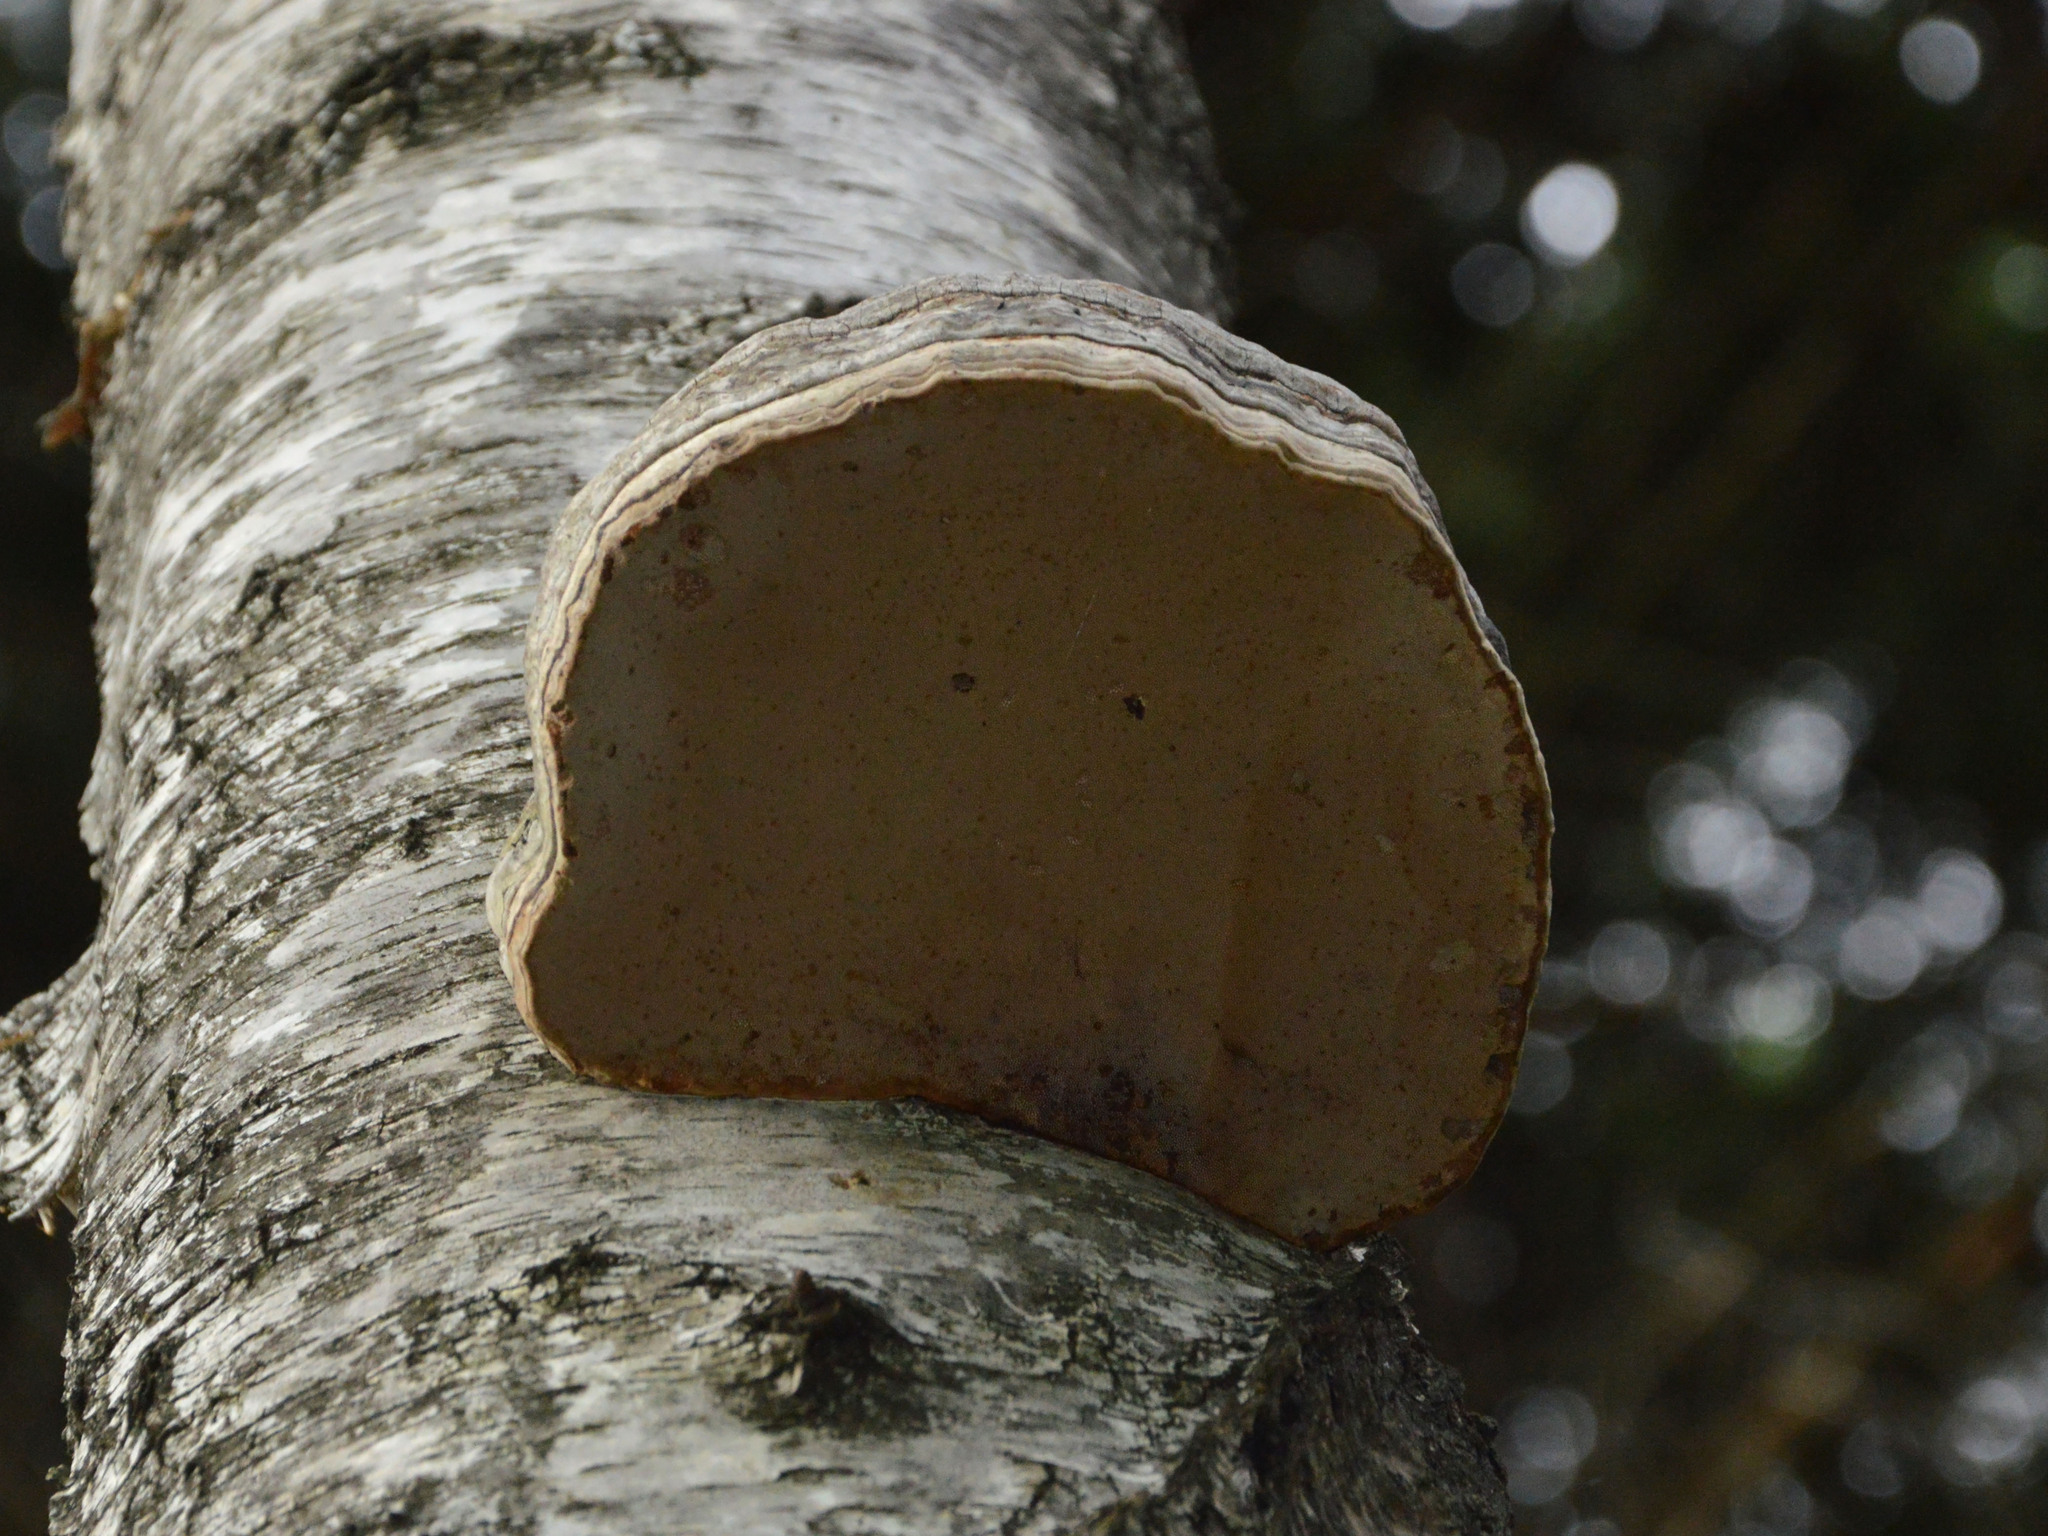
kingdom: Fungi
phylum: Basidiomycota
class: Agaricomycetes
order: Polyporales
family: Polyporaceae
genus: Fomes
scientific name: Fomes fomentarius
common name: Hoof fungus
